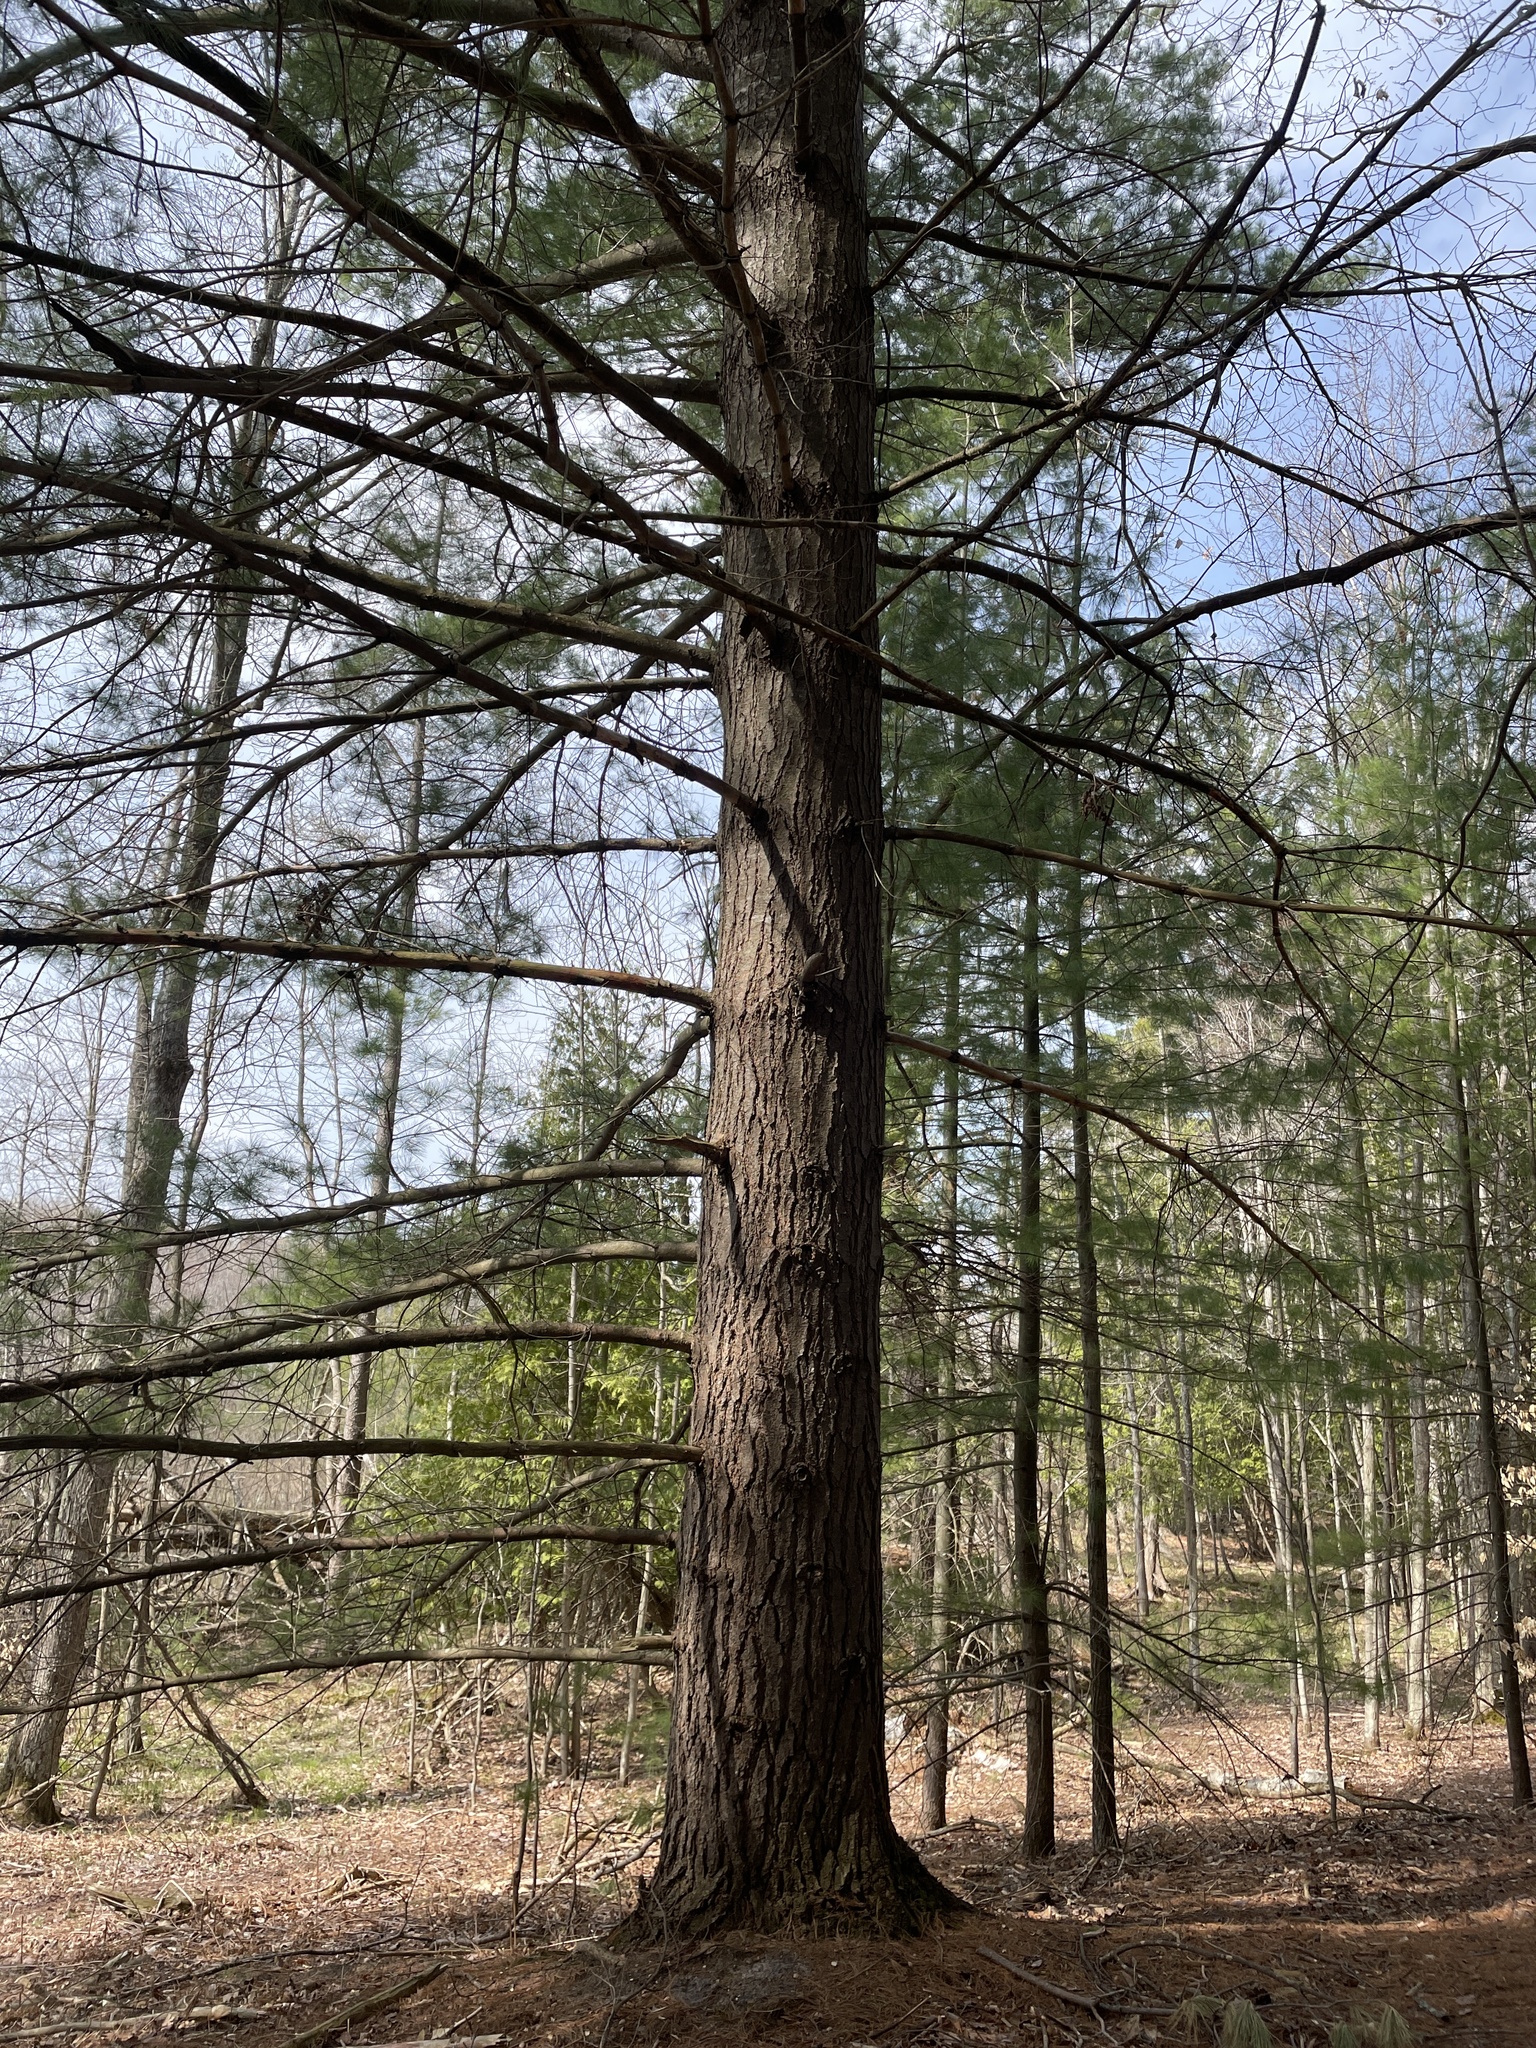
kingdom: Plantae
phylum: Tracheophyta
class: Pinopsida
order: Pinales
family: Pinaceae
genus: Pinus
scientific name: Pinus strobus
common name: Weymouth pine
